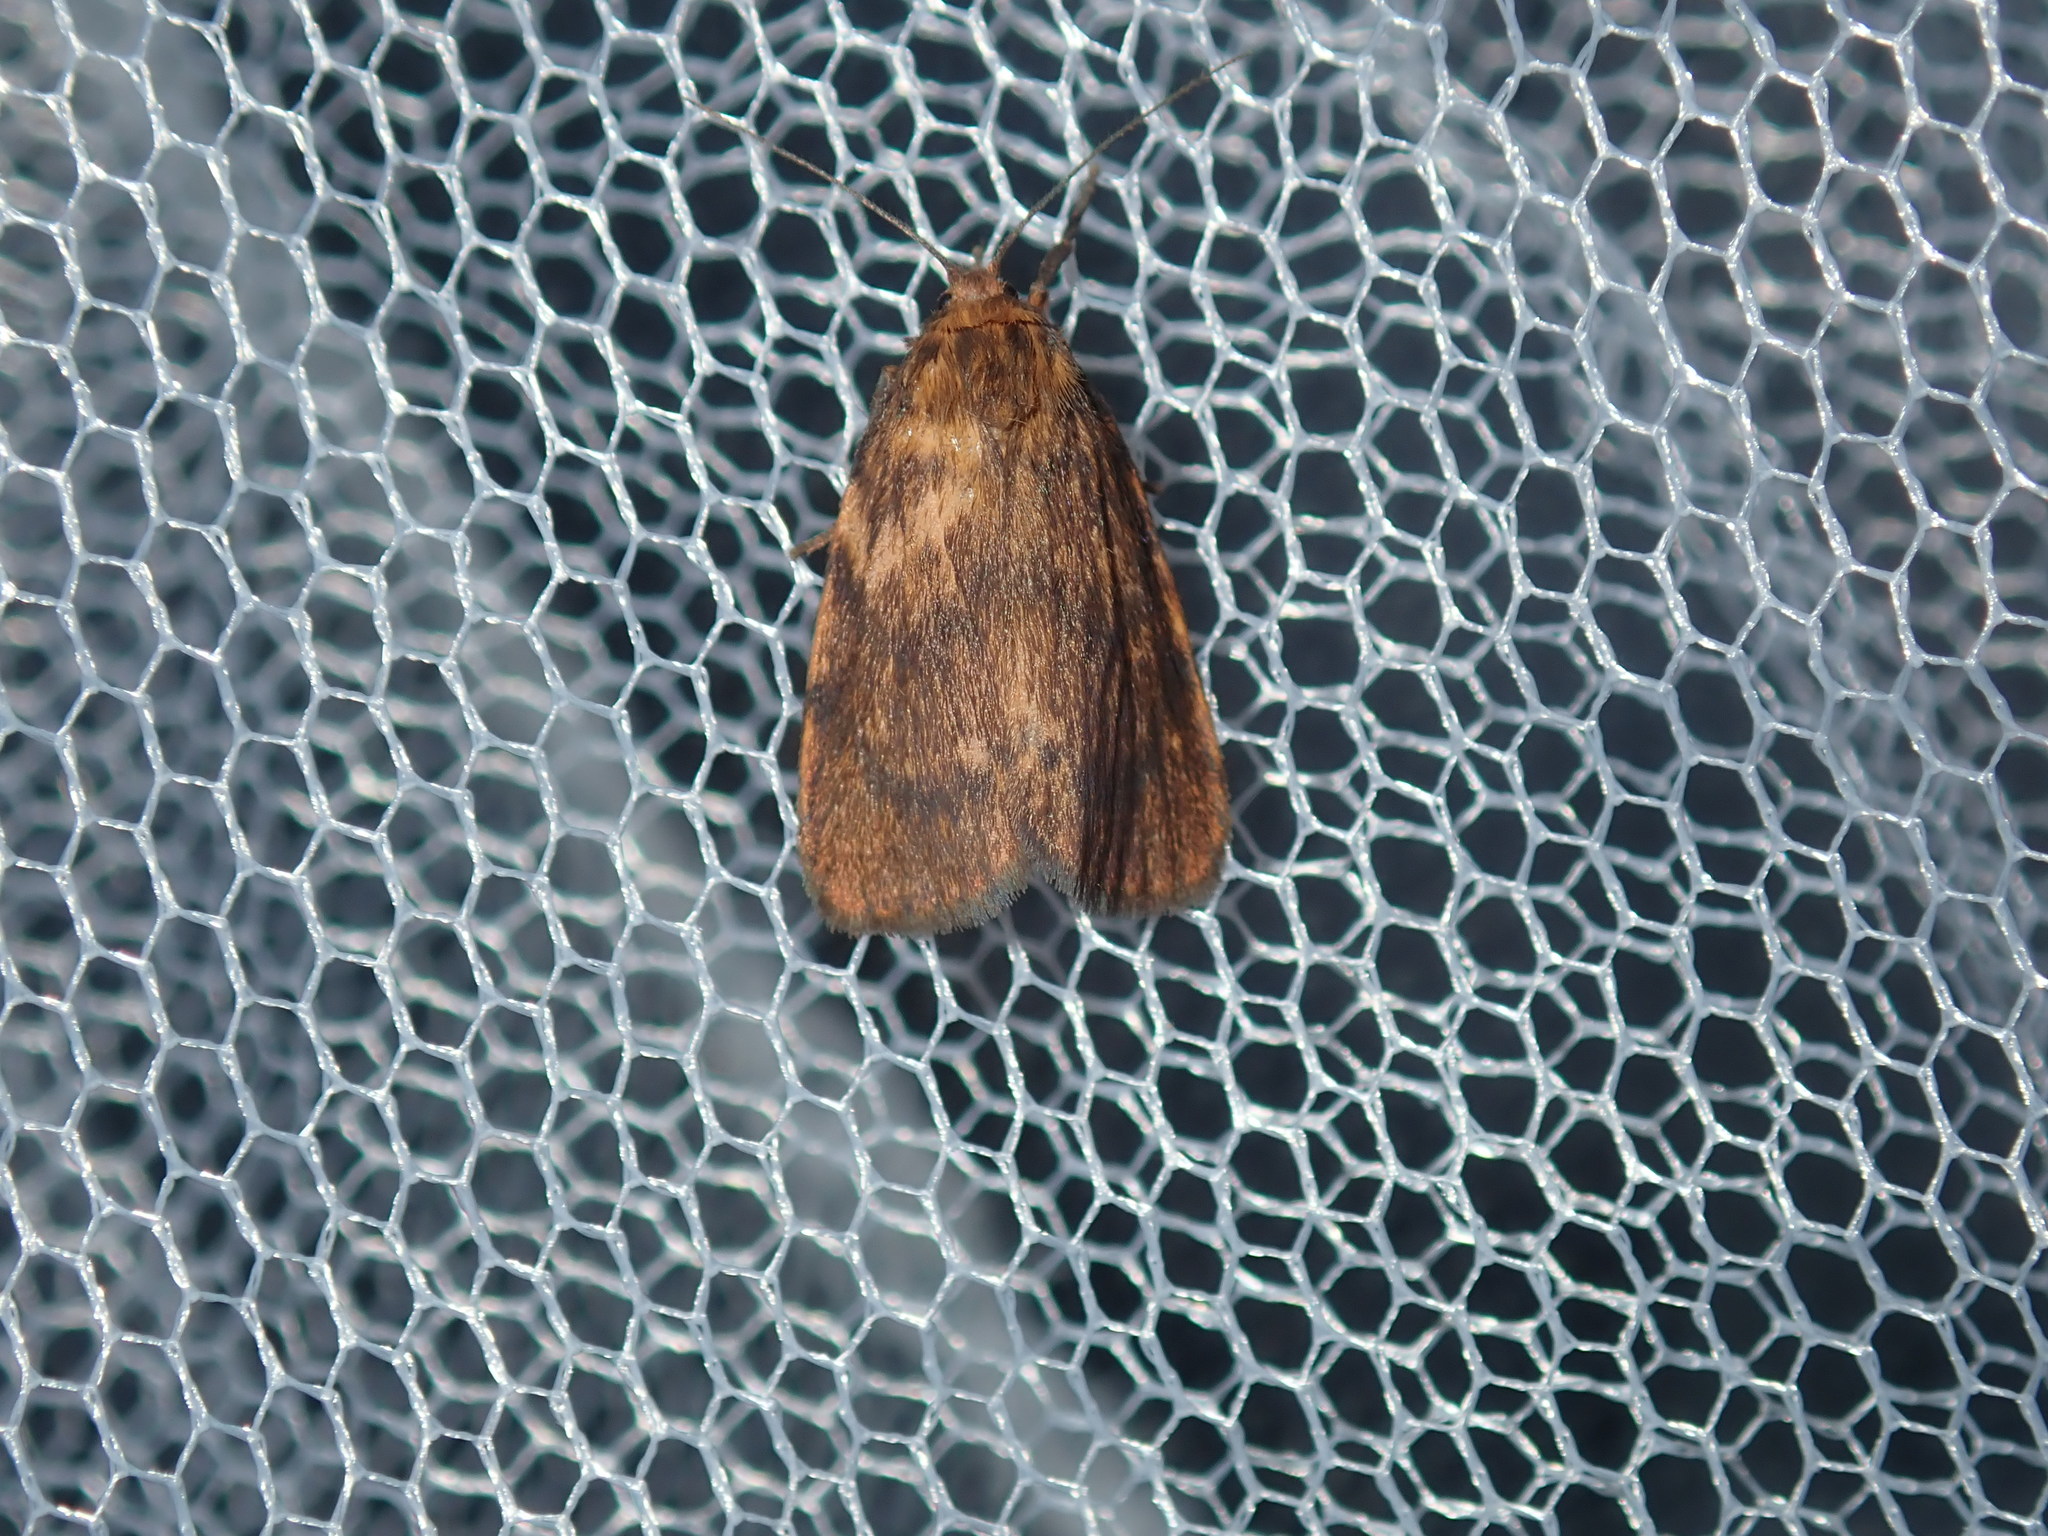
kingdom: Animalia
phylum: Arthropoda
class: Insecta
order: Lepidoptera
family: Erebidae
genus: Cyme
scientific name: Cyme structa
